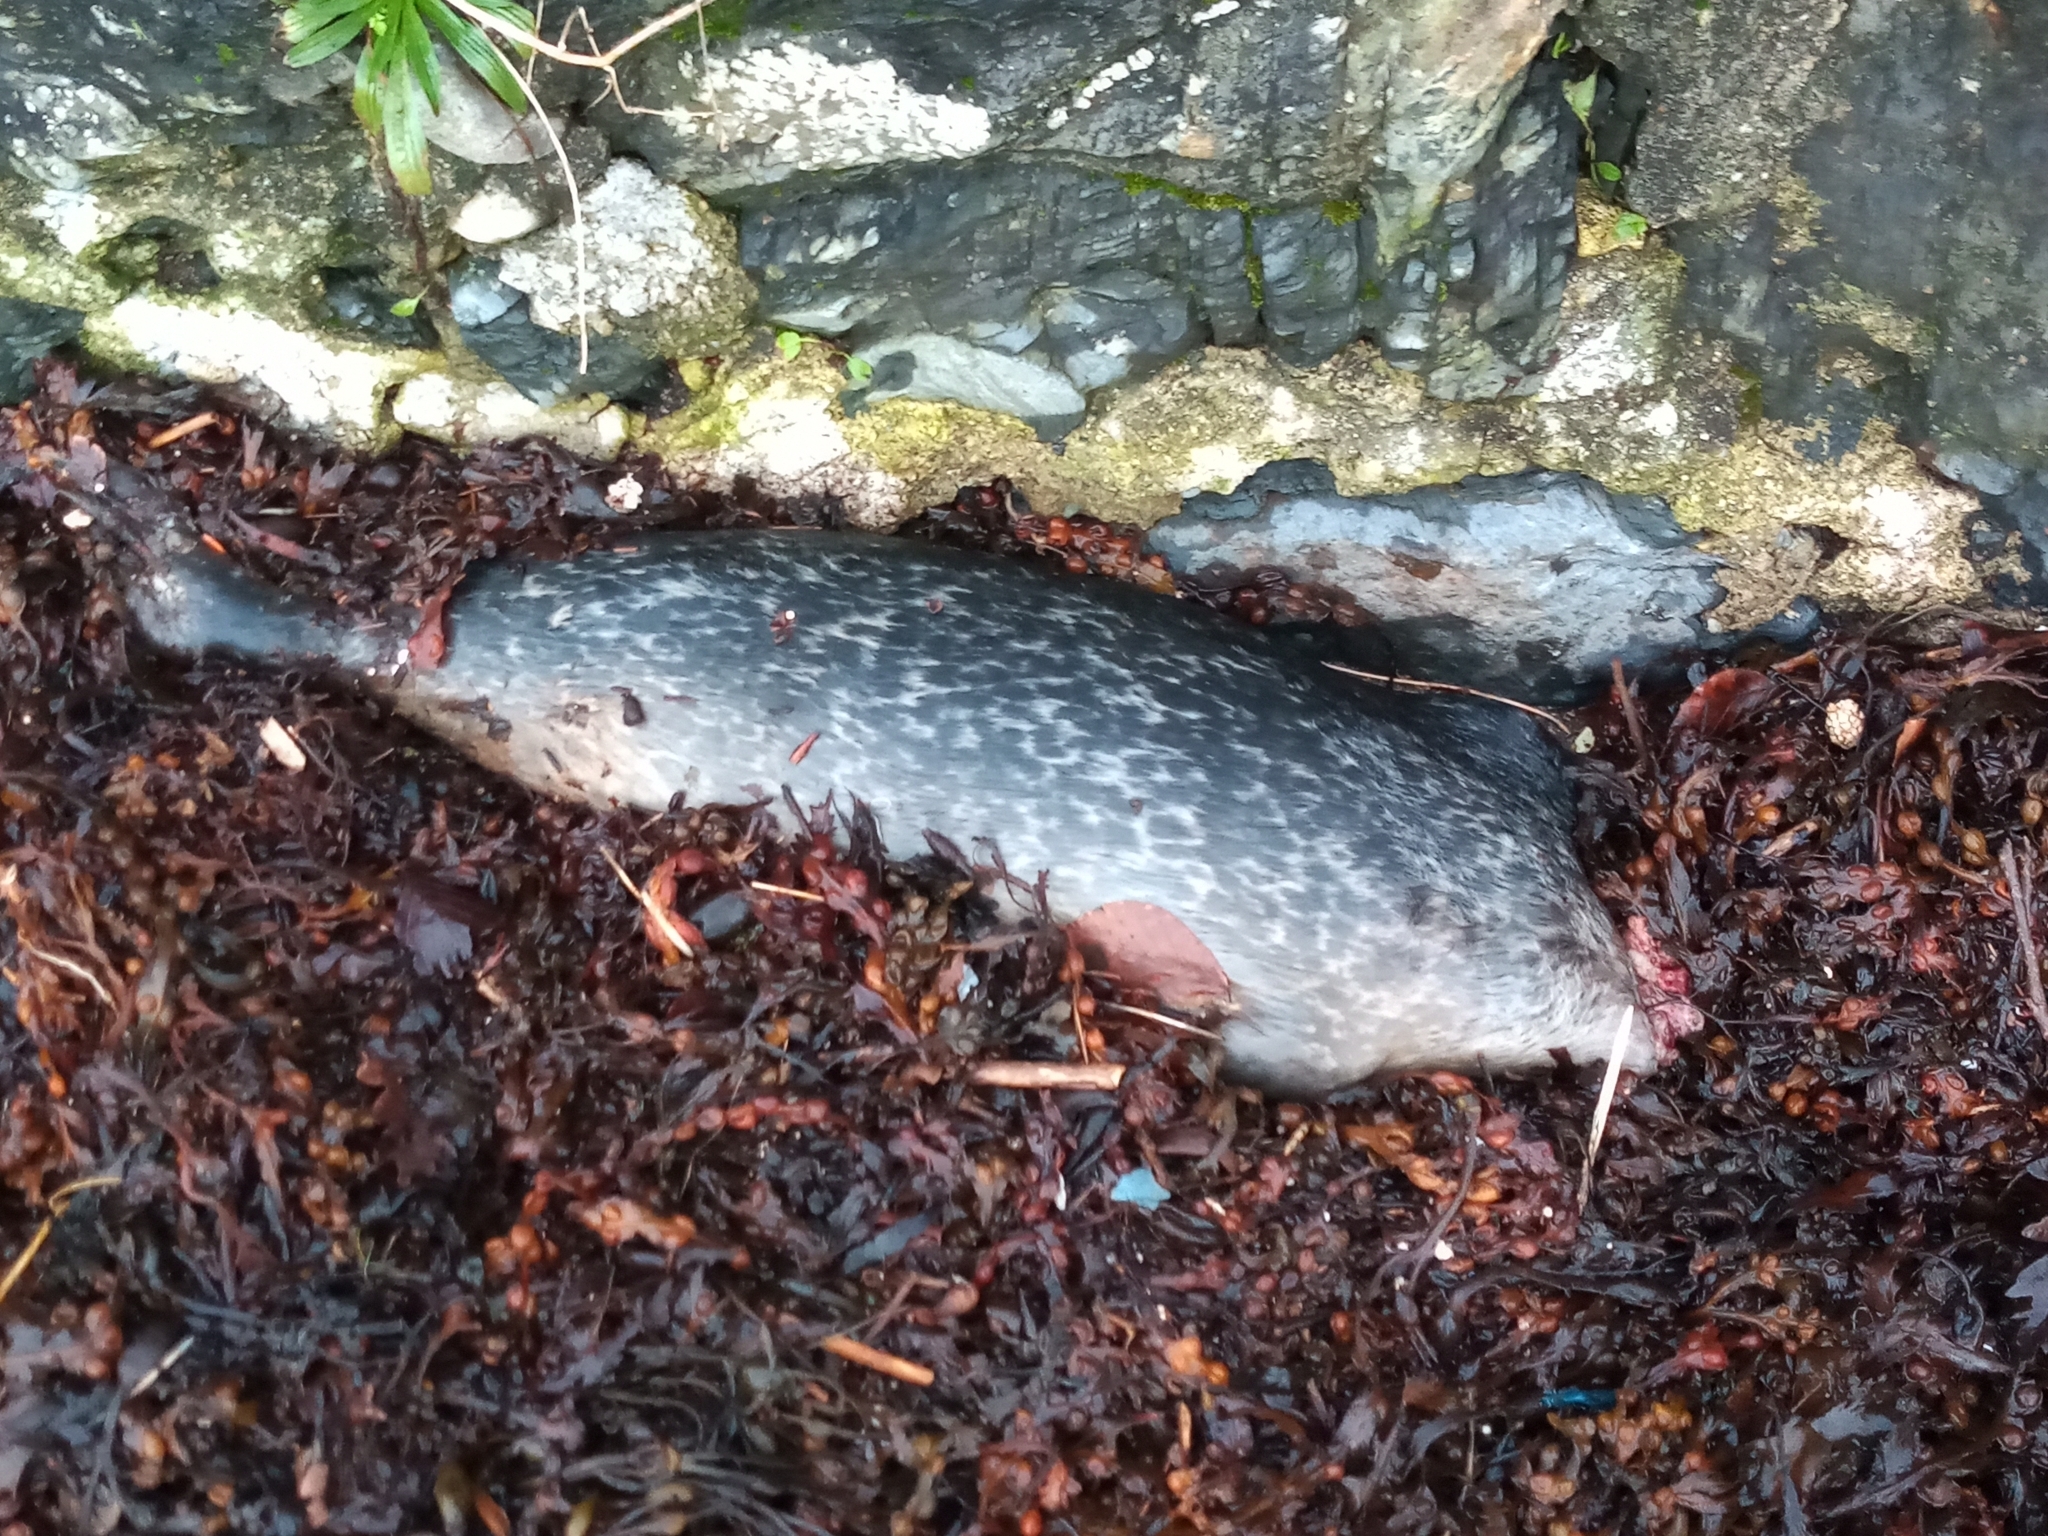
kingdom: Animalia
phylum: Chordata
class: Mammalia
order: Carnivora
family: Phocidae
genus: Phoca
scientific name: Phoca vitulina
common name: Harbor seal
